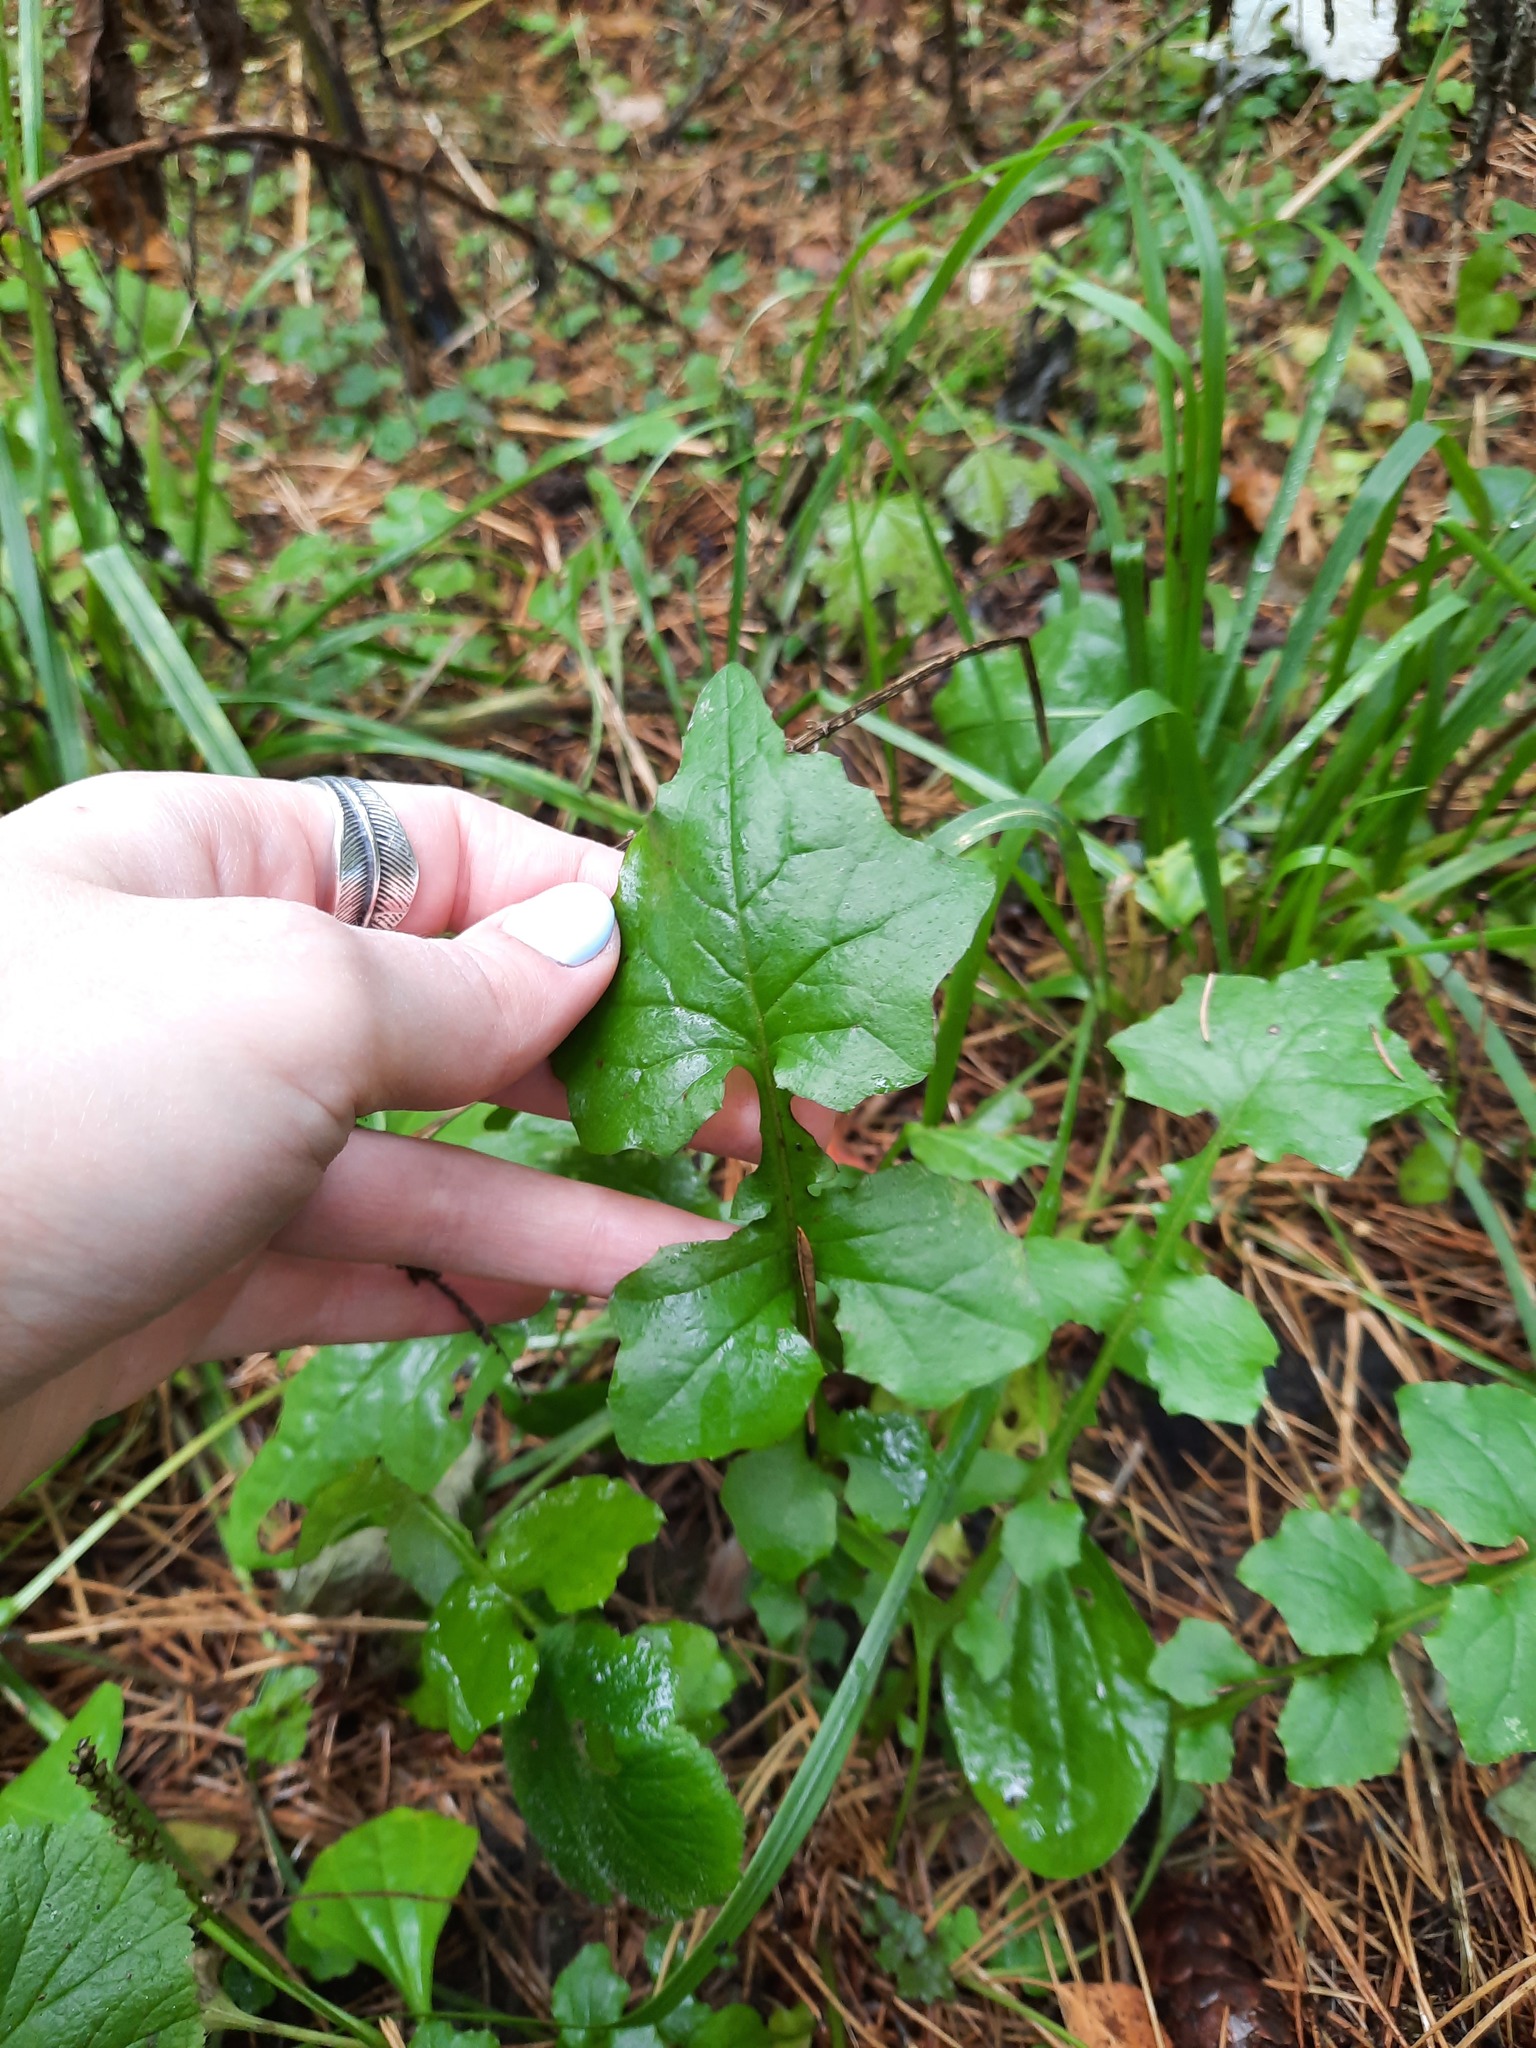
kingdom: Plantae
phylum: Tracheophyta
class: Magnoliopsida
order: Asterales
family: Asteraceae
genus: Mycelis
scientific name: Mycelis muralis
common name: Wall lettuce
